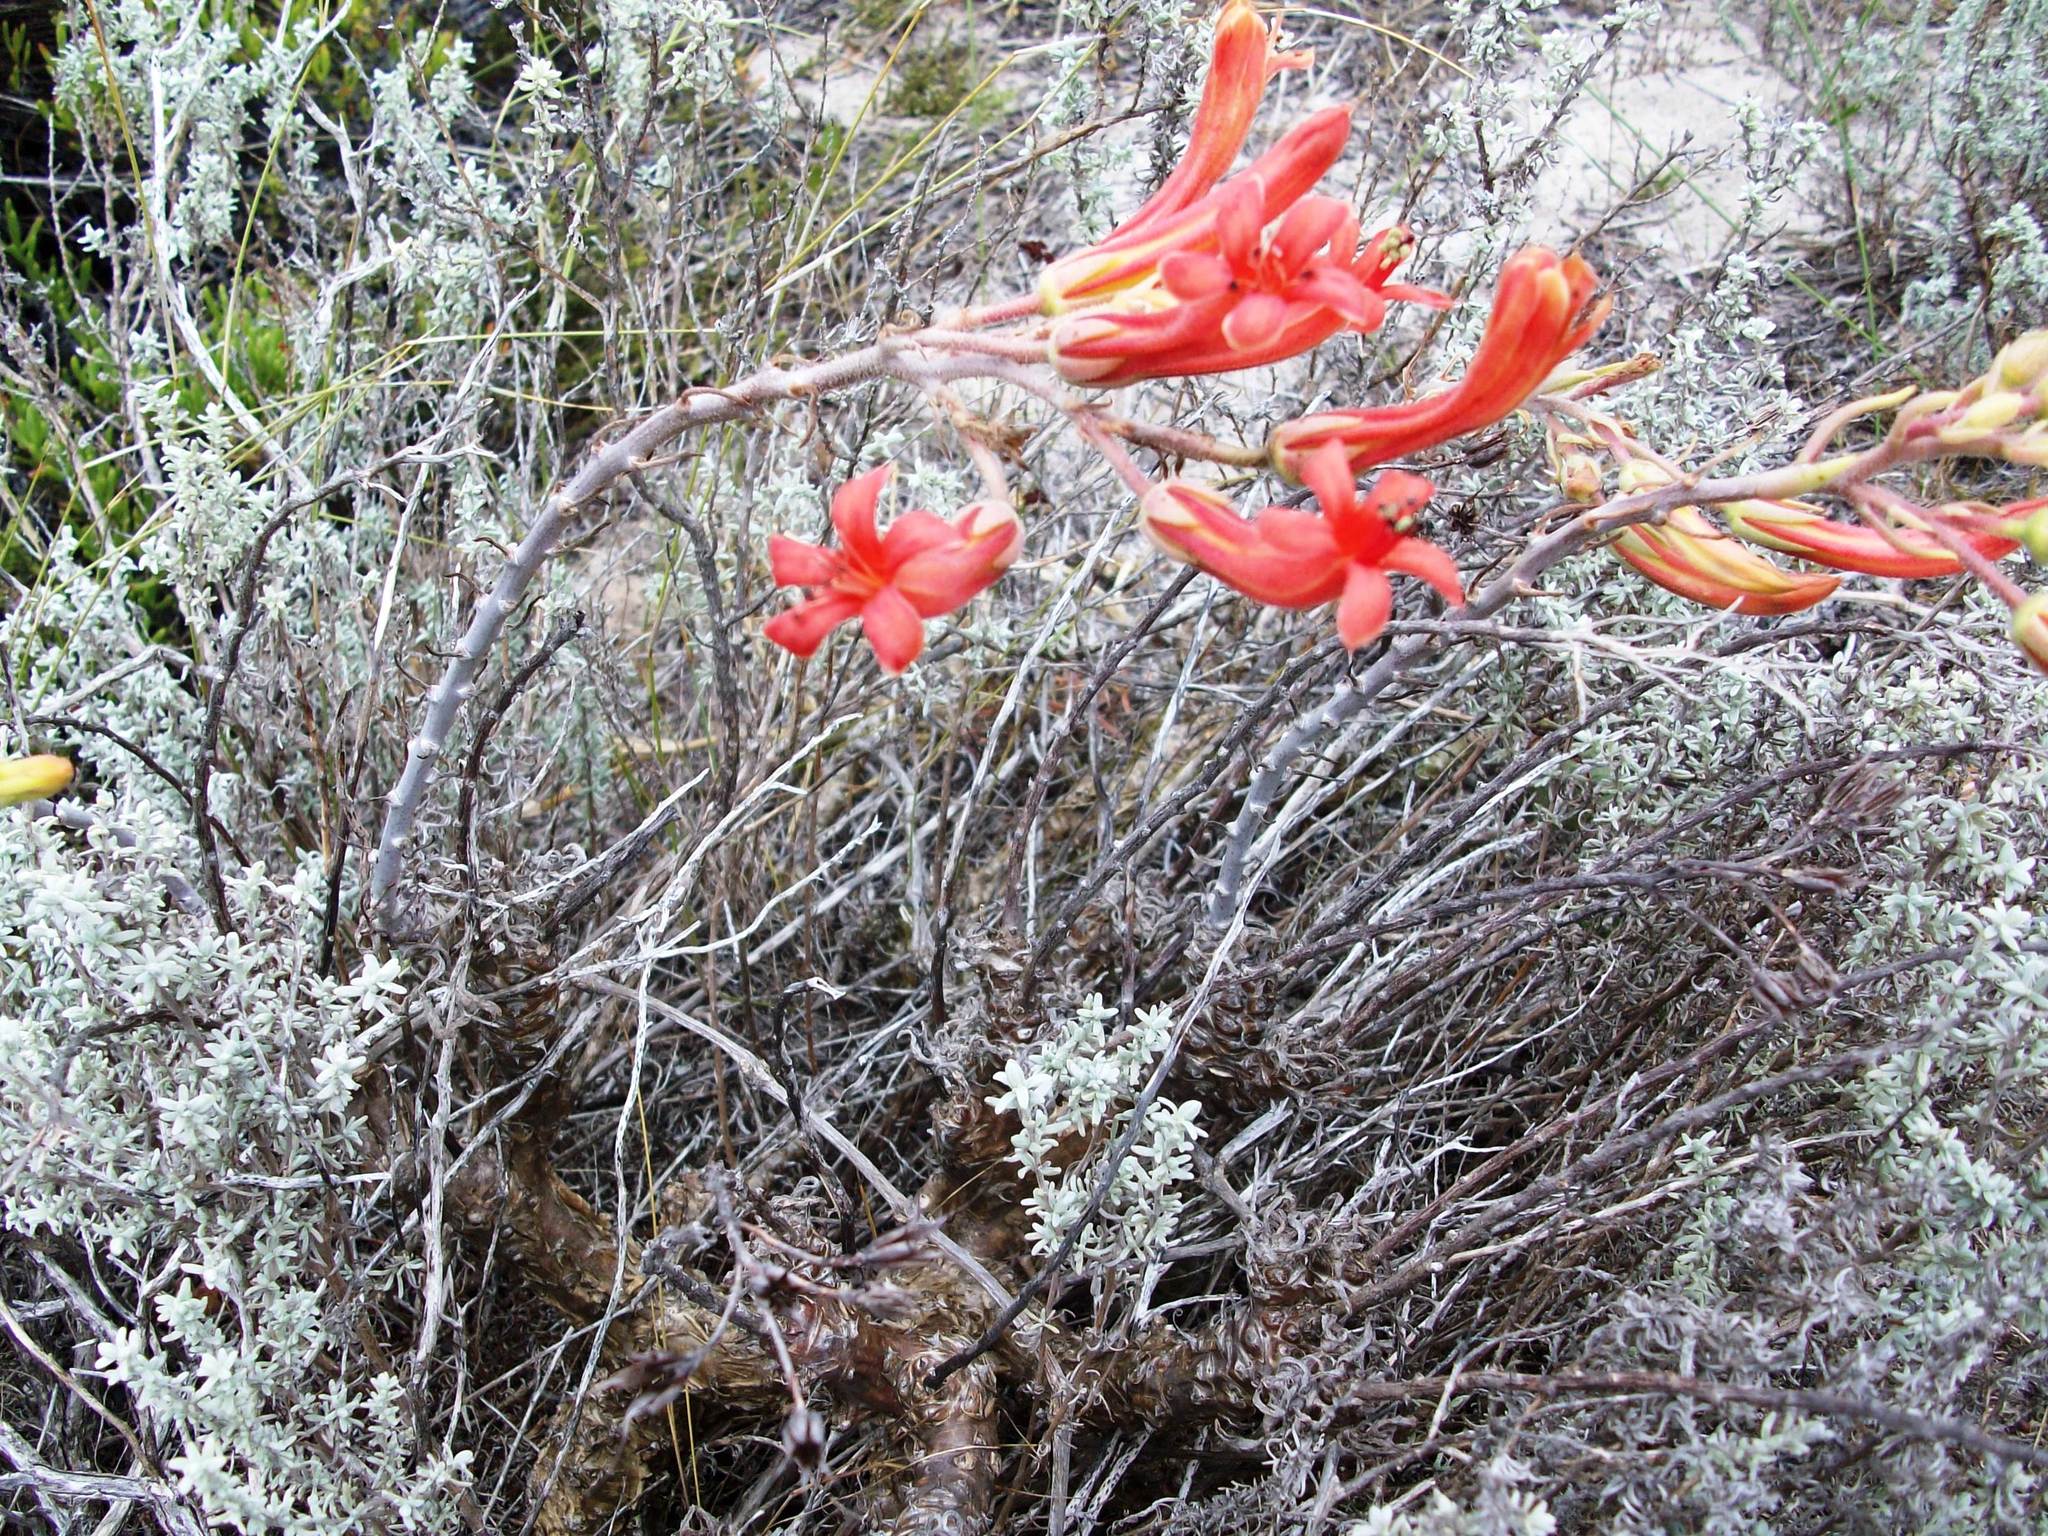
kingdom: Plantae
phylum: Tracheophyta
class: Magnoliopsida
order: Saxifragales
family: Crassulaceae
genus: Tylecodon
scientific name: Tylecodon grandiflorus
